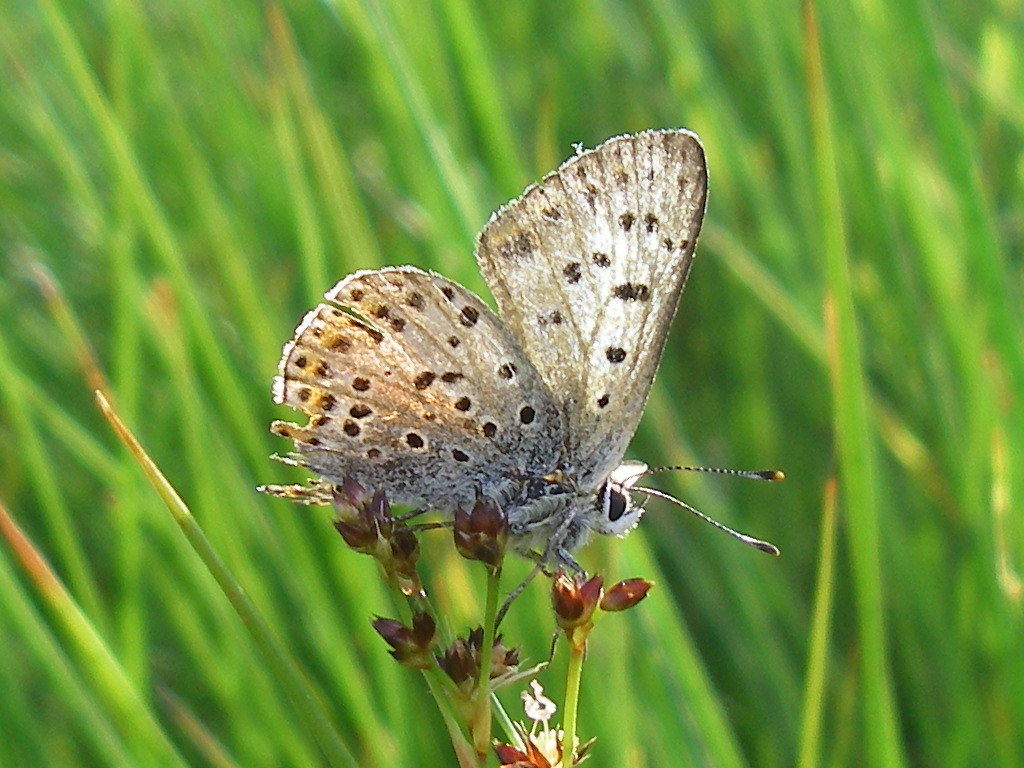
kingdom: Animalia
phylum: Arthropoda
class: Insecta
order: Lepidoptera
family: Lycaenidae
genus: Loweia
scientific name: Loweia tityrus
